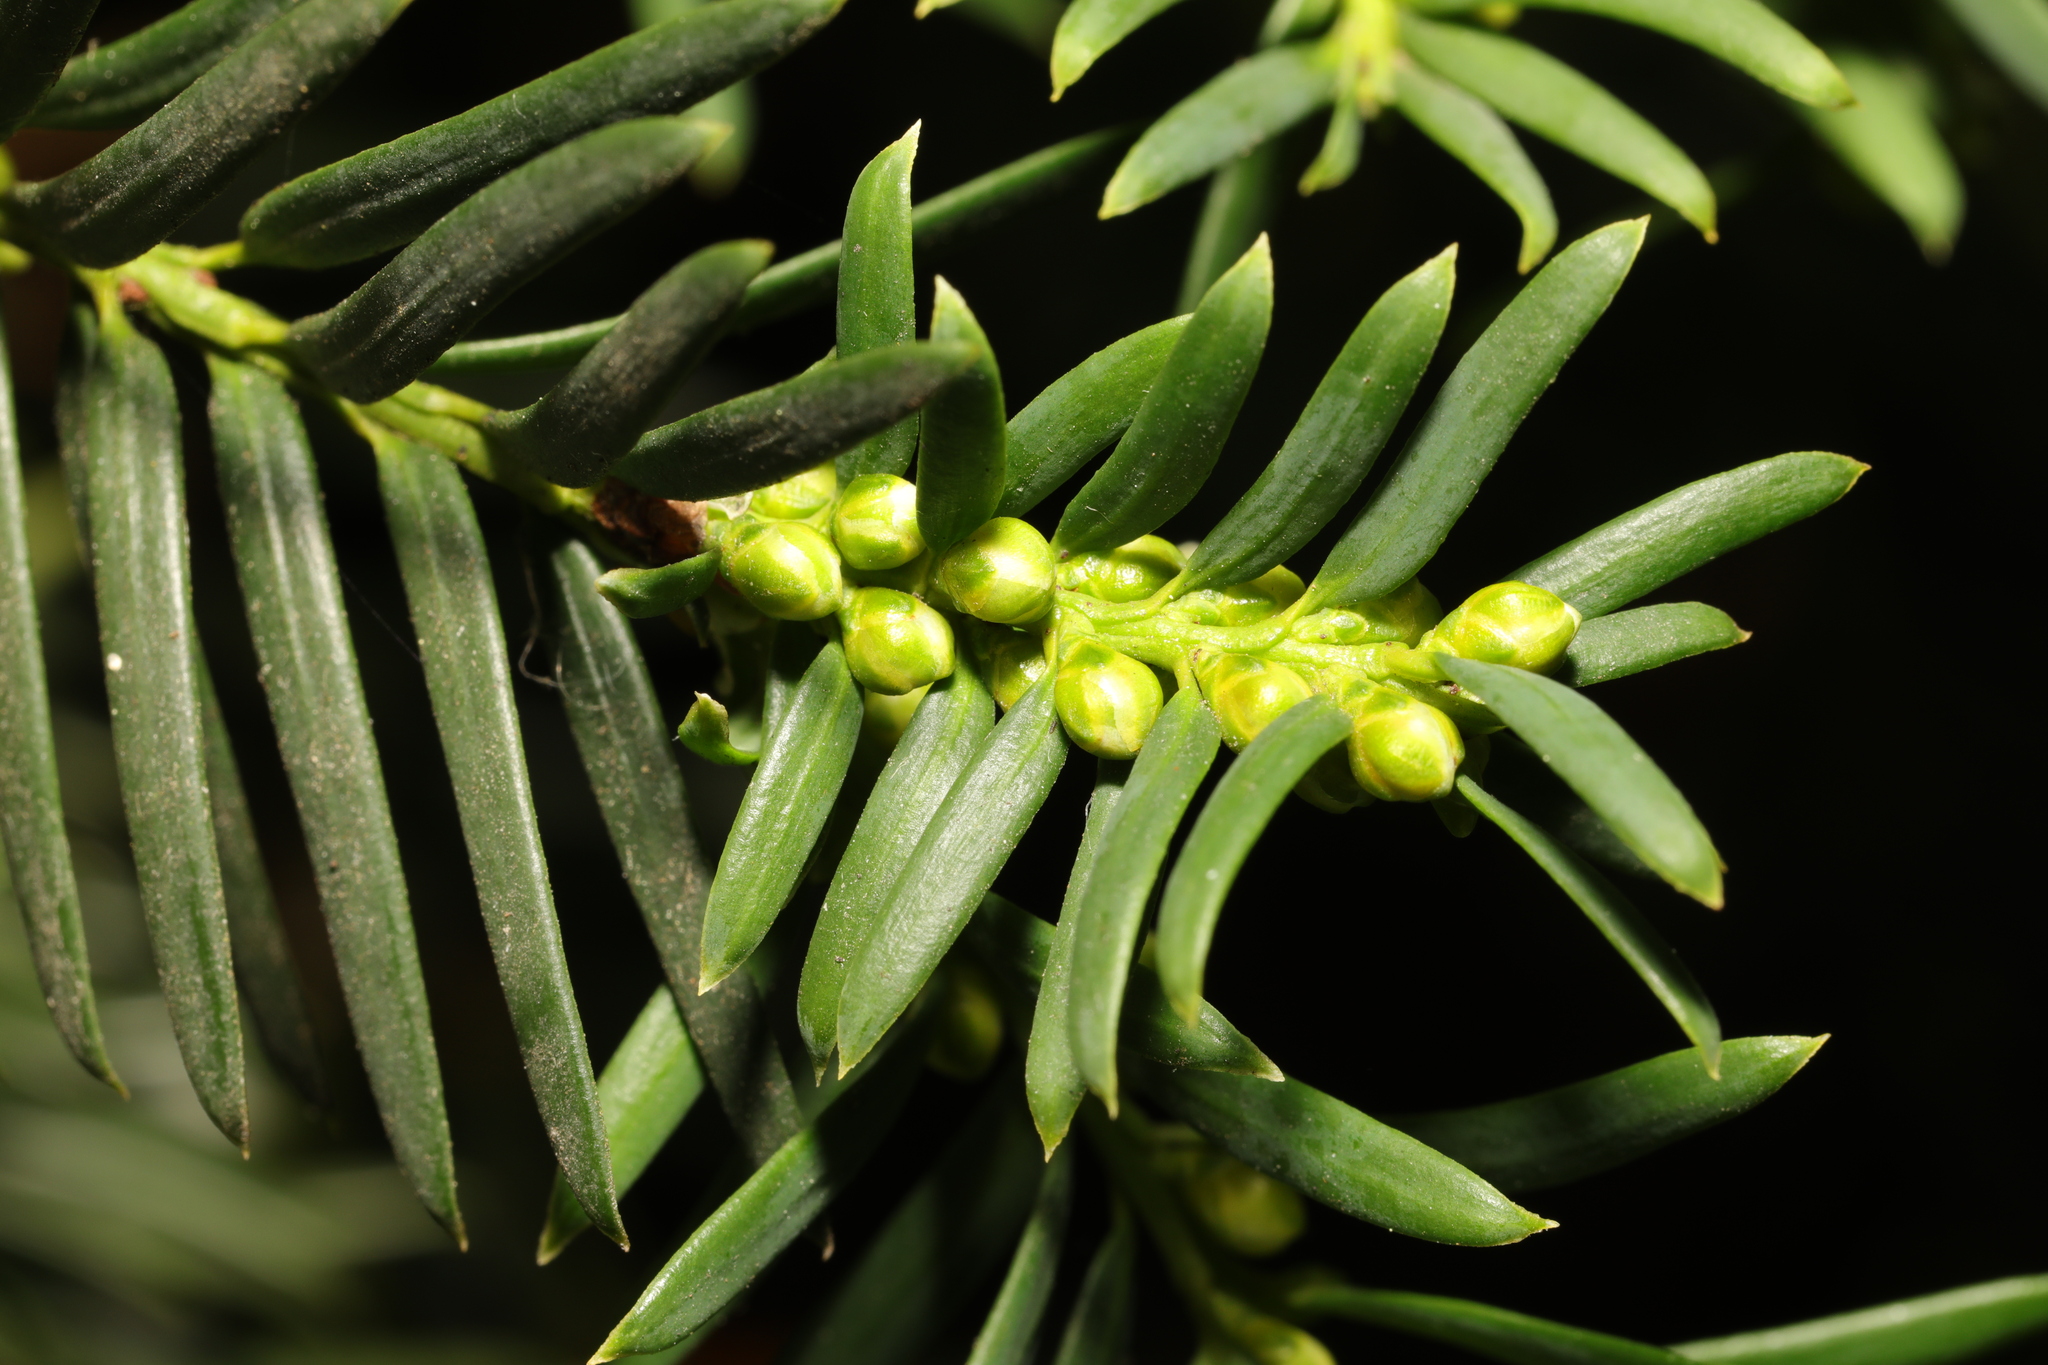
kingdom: Plantae
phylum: Tracheophyta
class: Pinopsida
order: Pinales
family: Taxaceae
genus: Taxus
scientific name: Taxus baccata
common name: Yew
